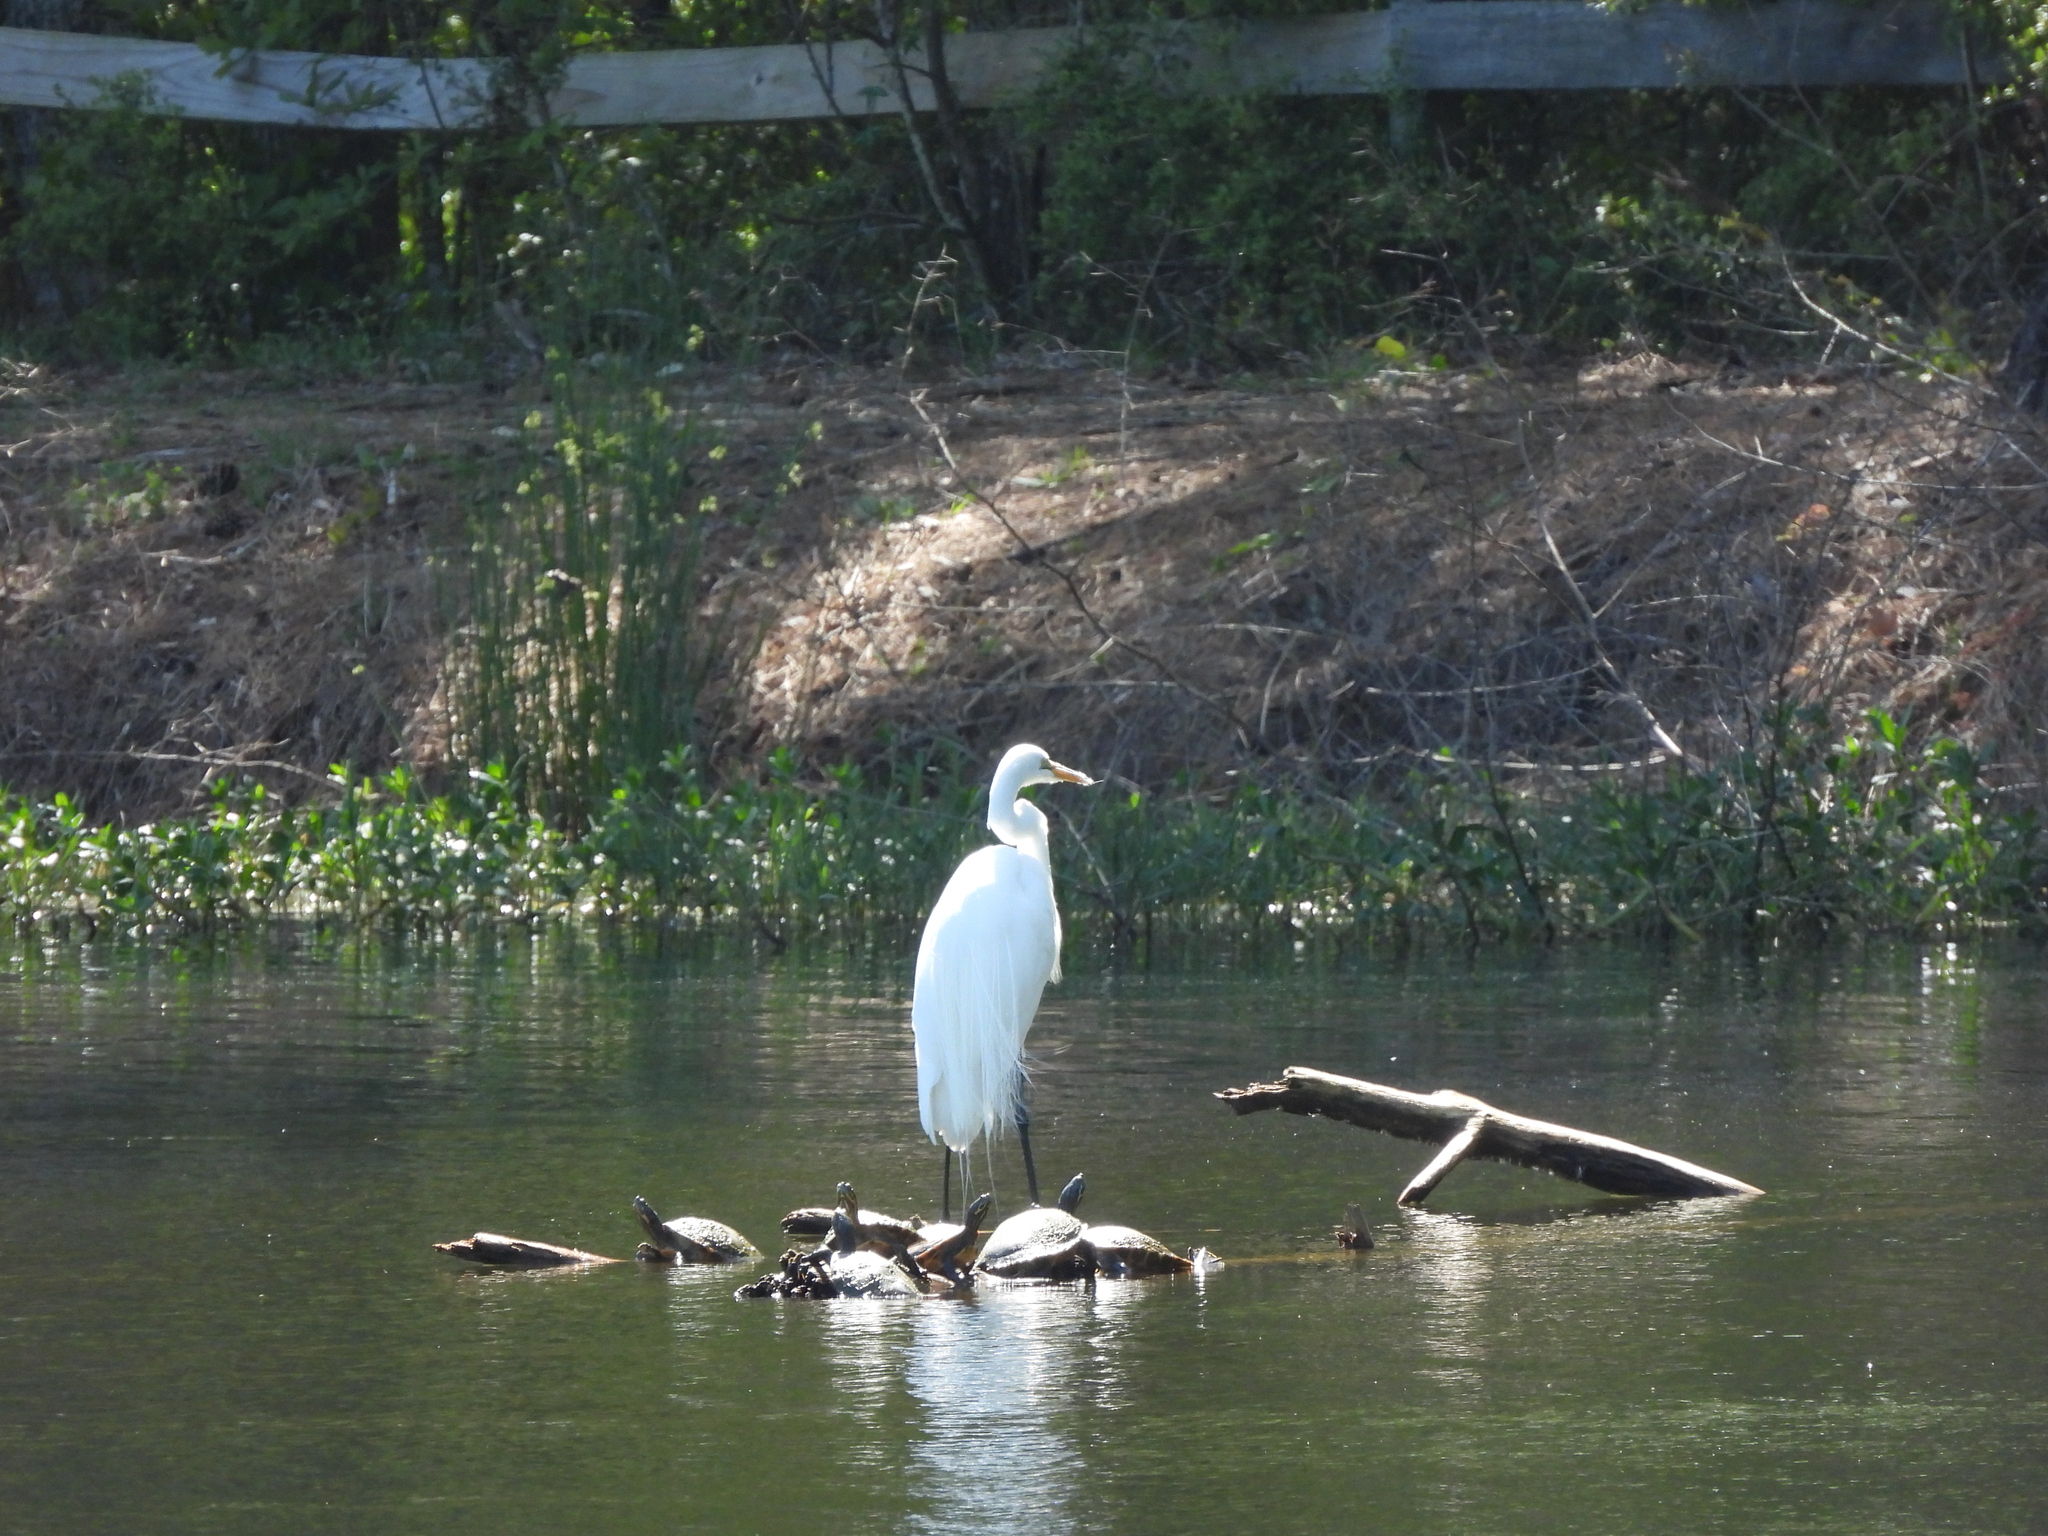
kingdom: Animalia
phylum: Chordata
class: Aves
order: Pelecaniformes
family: Ardeidae
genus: Ardea
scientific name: Ardea alba
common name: Great egret
